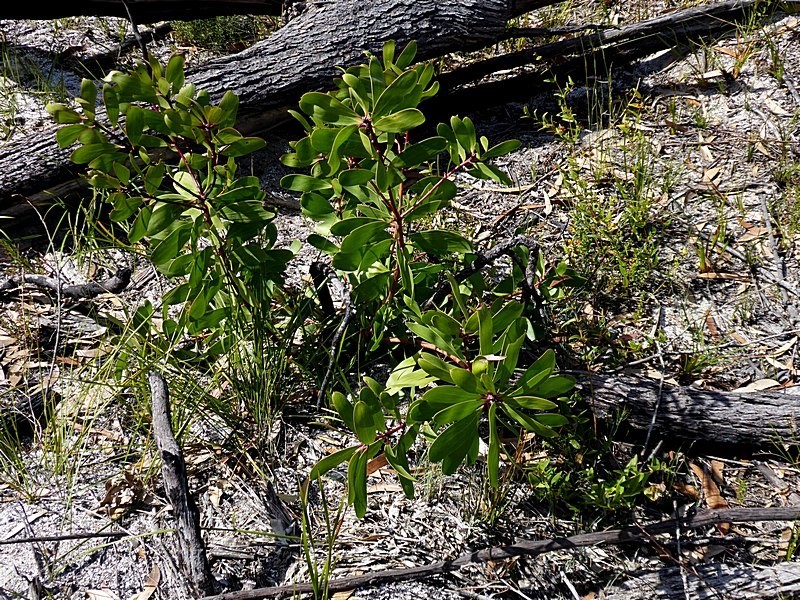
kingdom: Plantae
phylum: Tracheophyta
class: Magnoliopsida
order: Proteales
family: Proteaceae
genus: Persoonia
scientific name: Persoonia levis
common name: Smooth geebung
